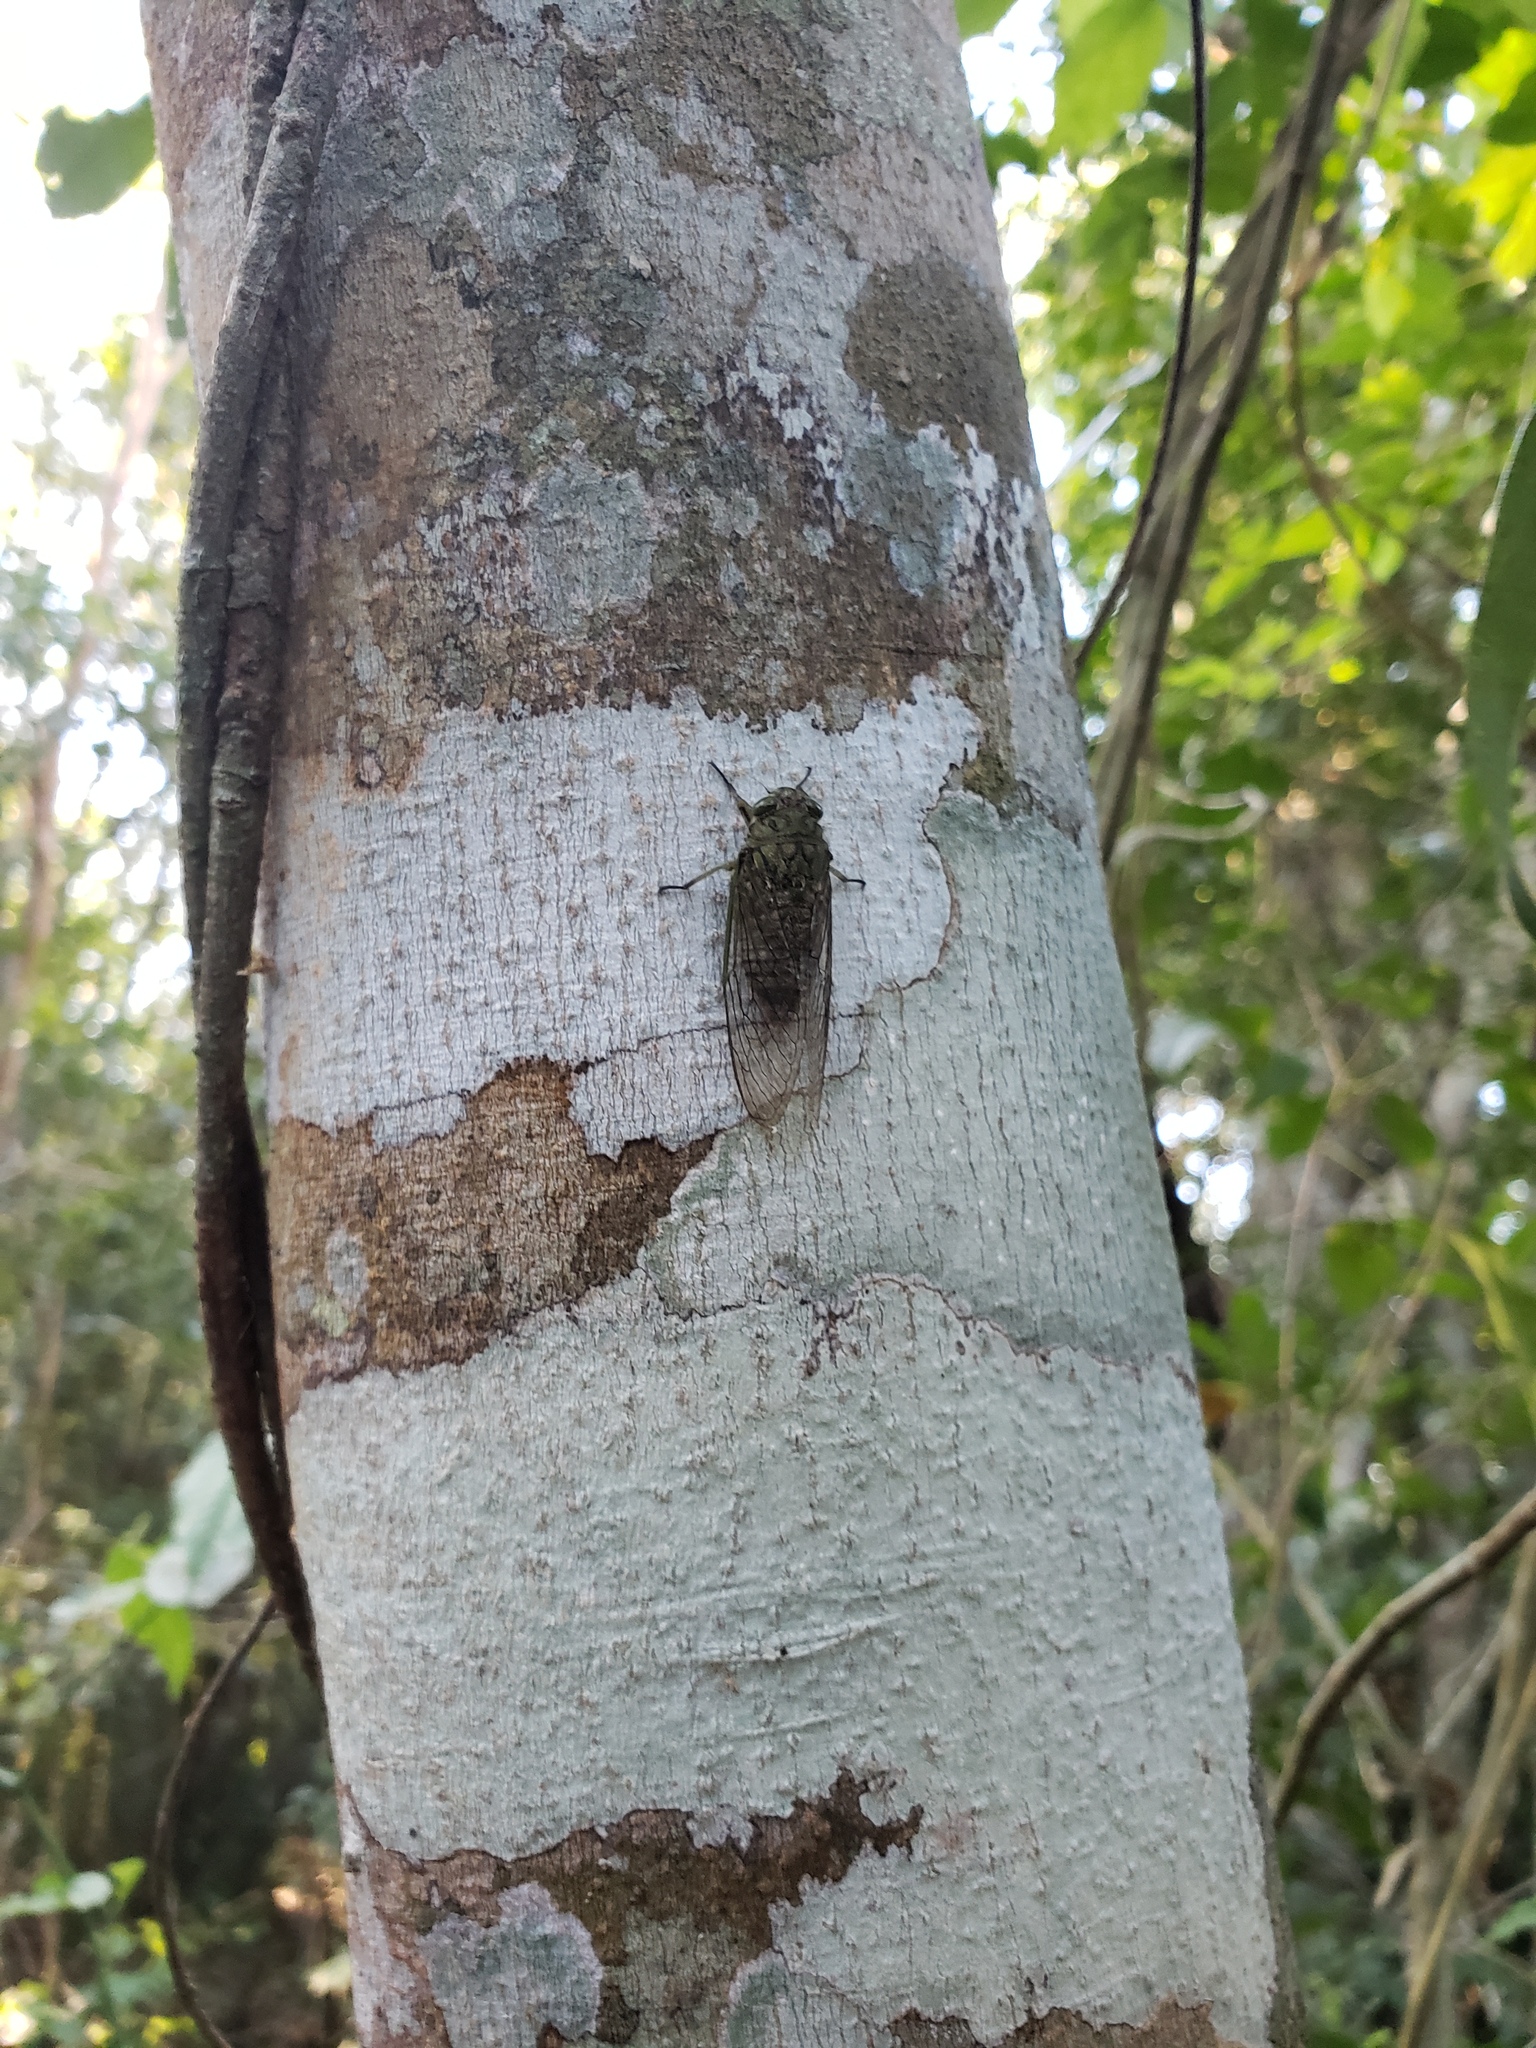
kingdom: Animalia
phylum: Arthropoda
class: Insecta
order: Hemiptera
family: Cicadidae
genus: Carineta
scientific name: Carineta bilineosa
